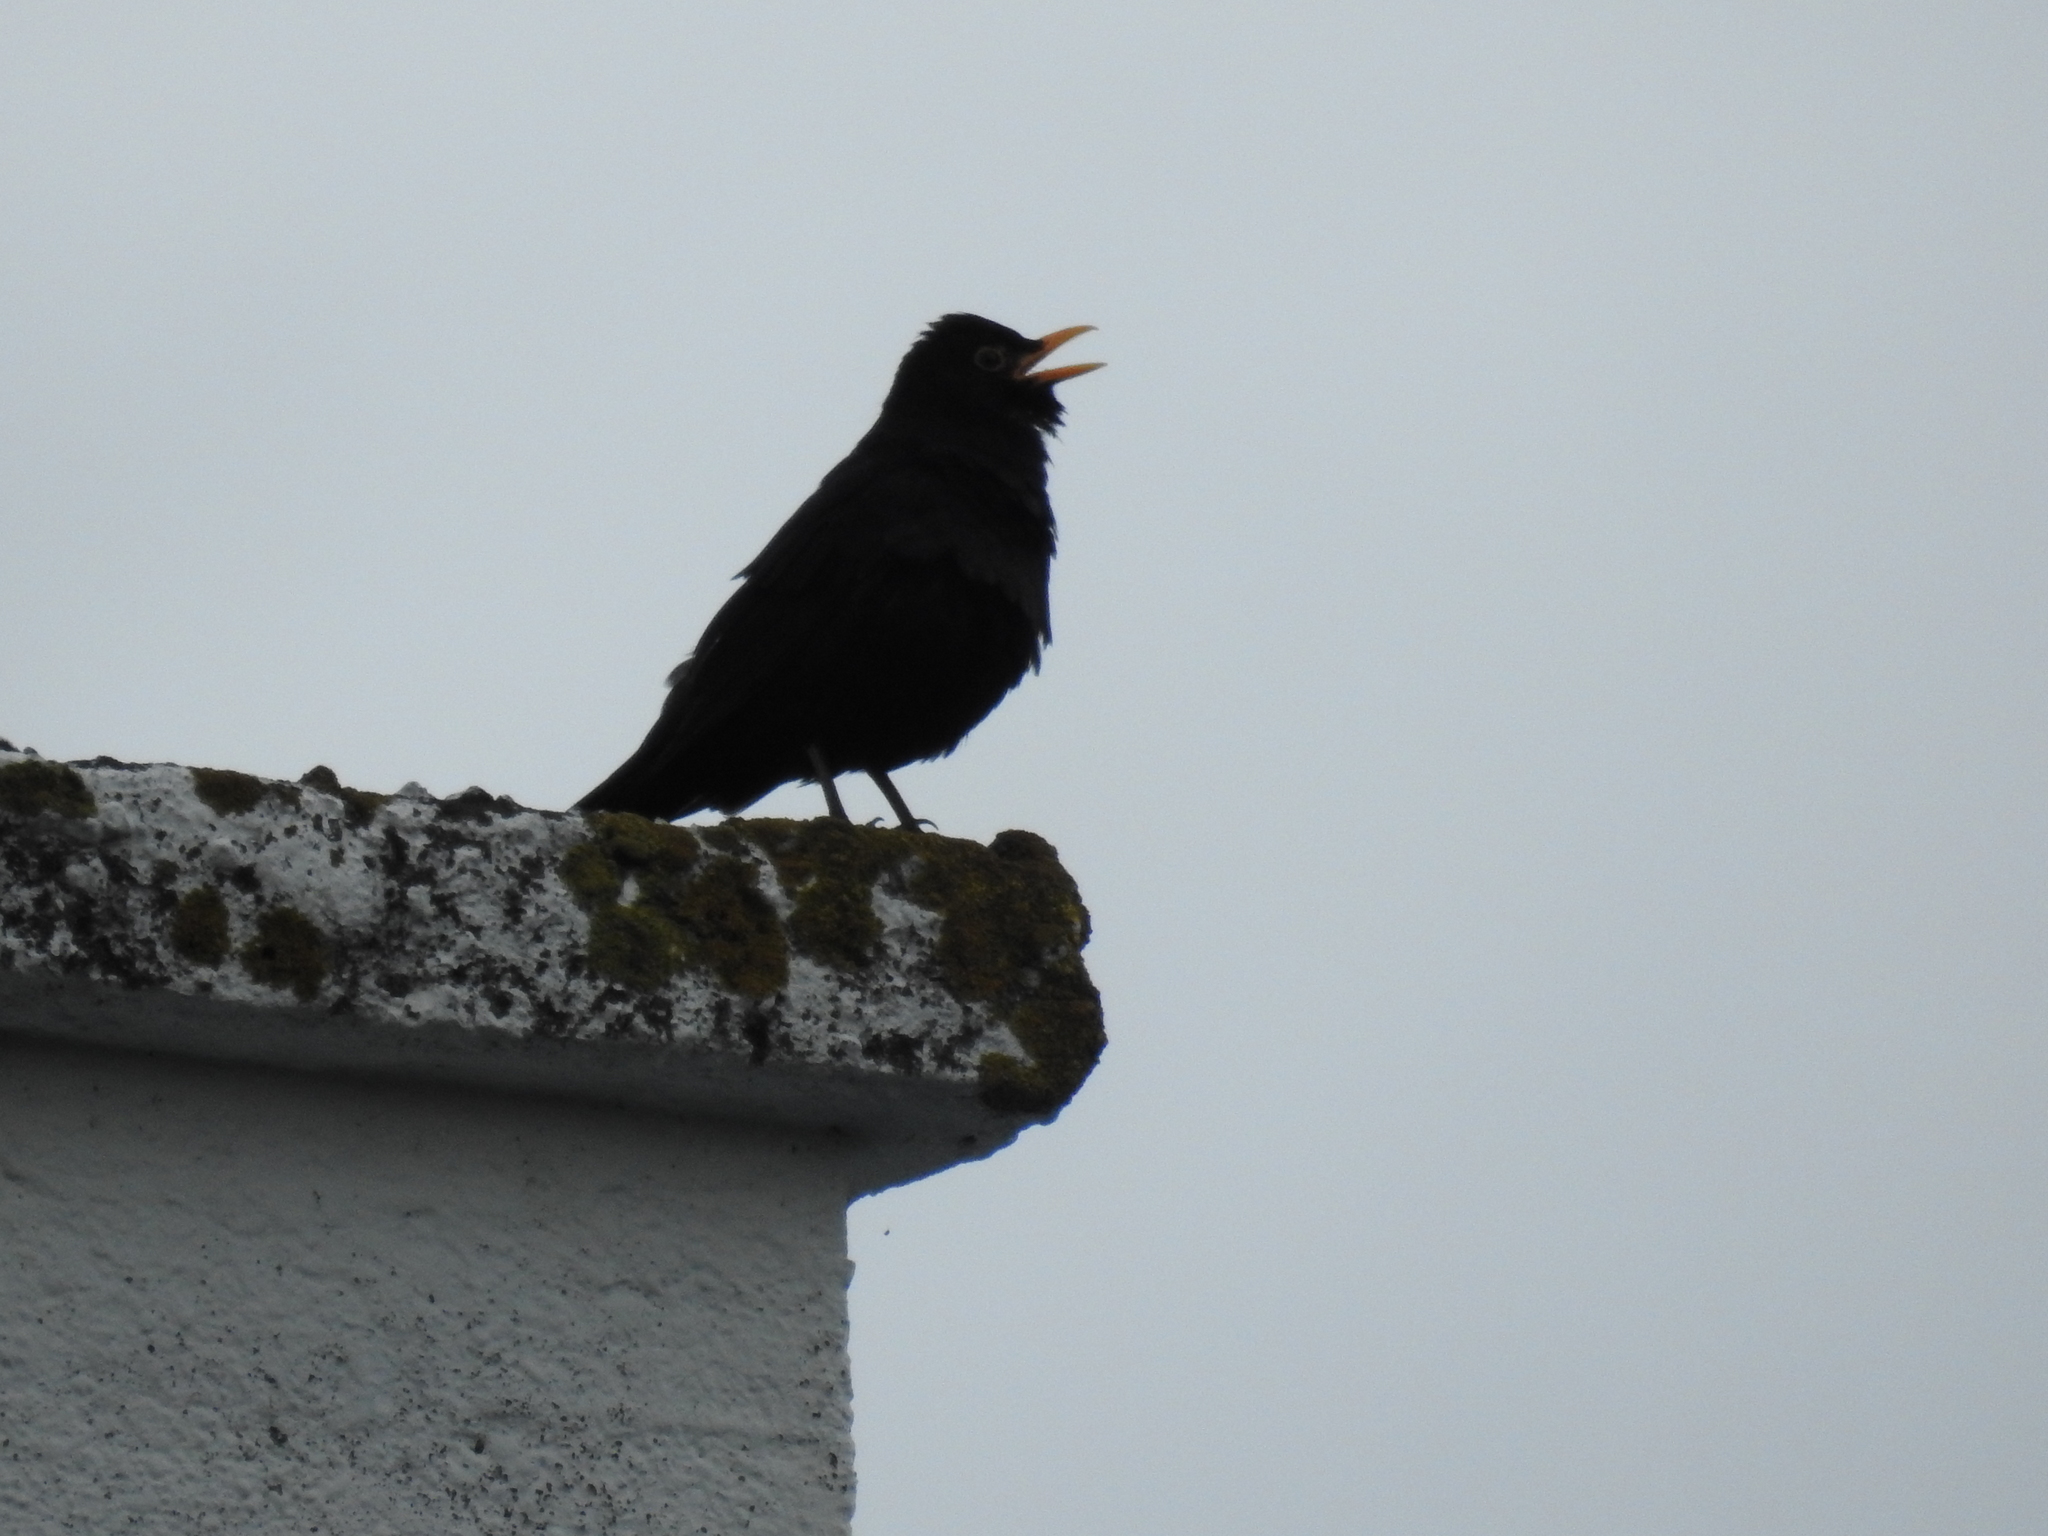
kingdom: Animalia
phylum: Chordata
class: Aves
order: Passeriformes
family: Turdidae
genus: Turdus
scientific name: Turdus merula
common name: Common blackbird
